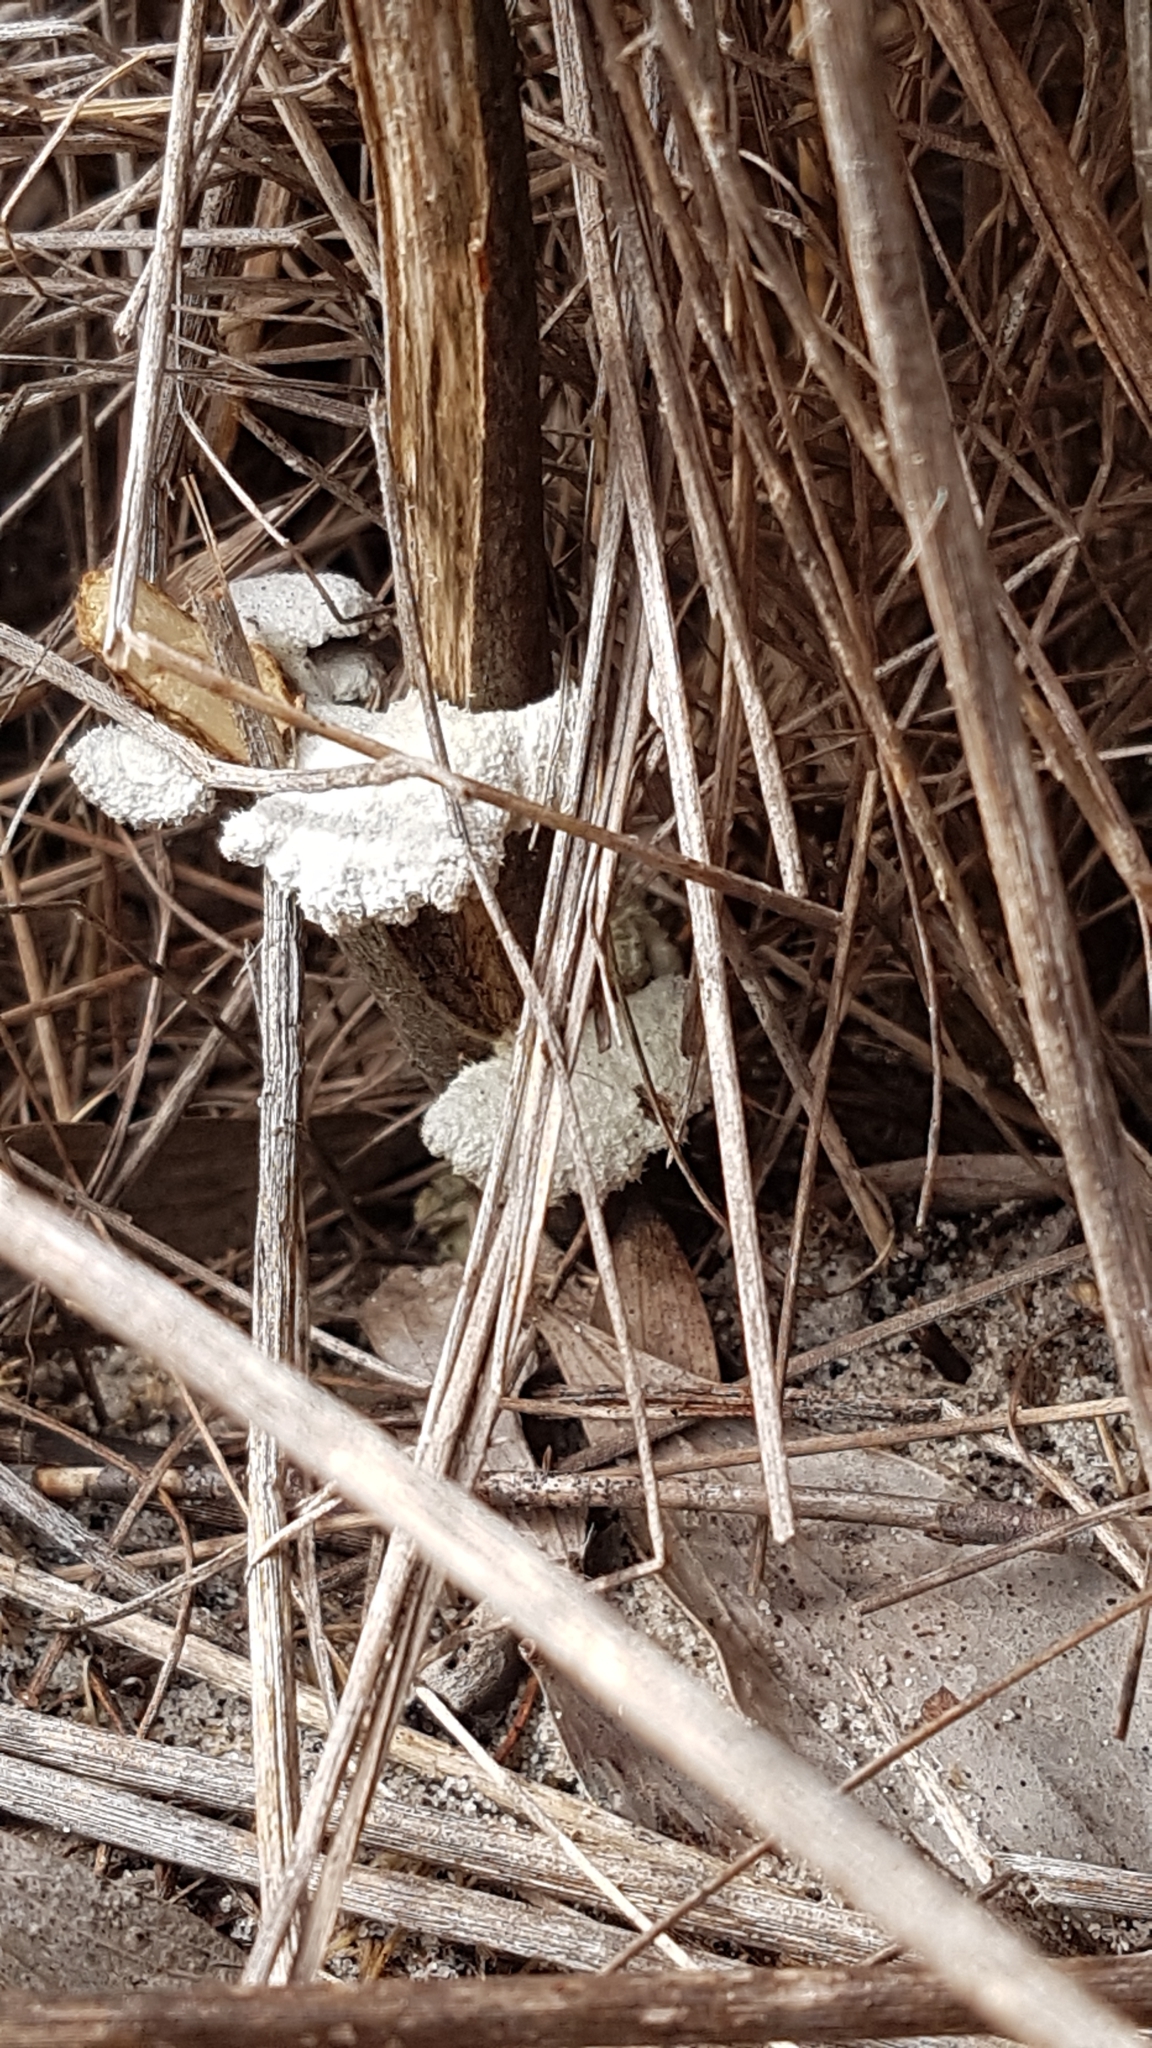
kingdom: Fungi
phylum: Basidiomycota
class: Agaricomycetes
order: Agaricales
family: Schizophyllaceae
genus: Schizophyllum
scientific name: Schizophyllum commune
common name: Common porecrust
